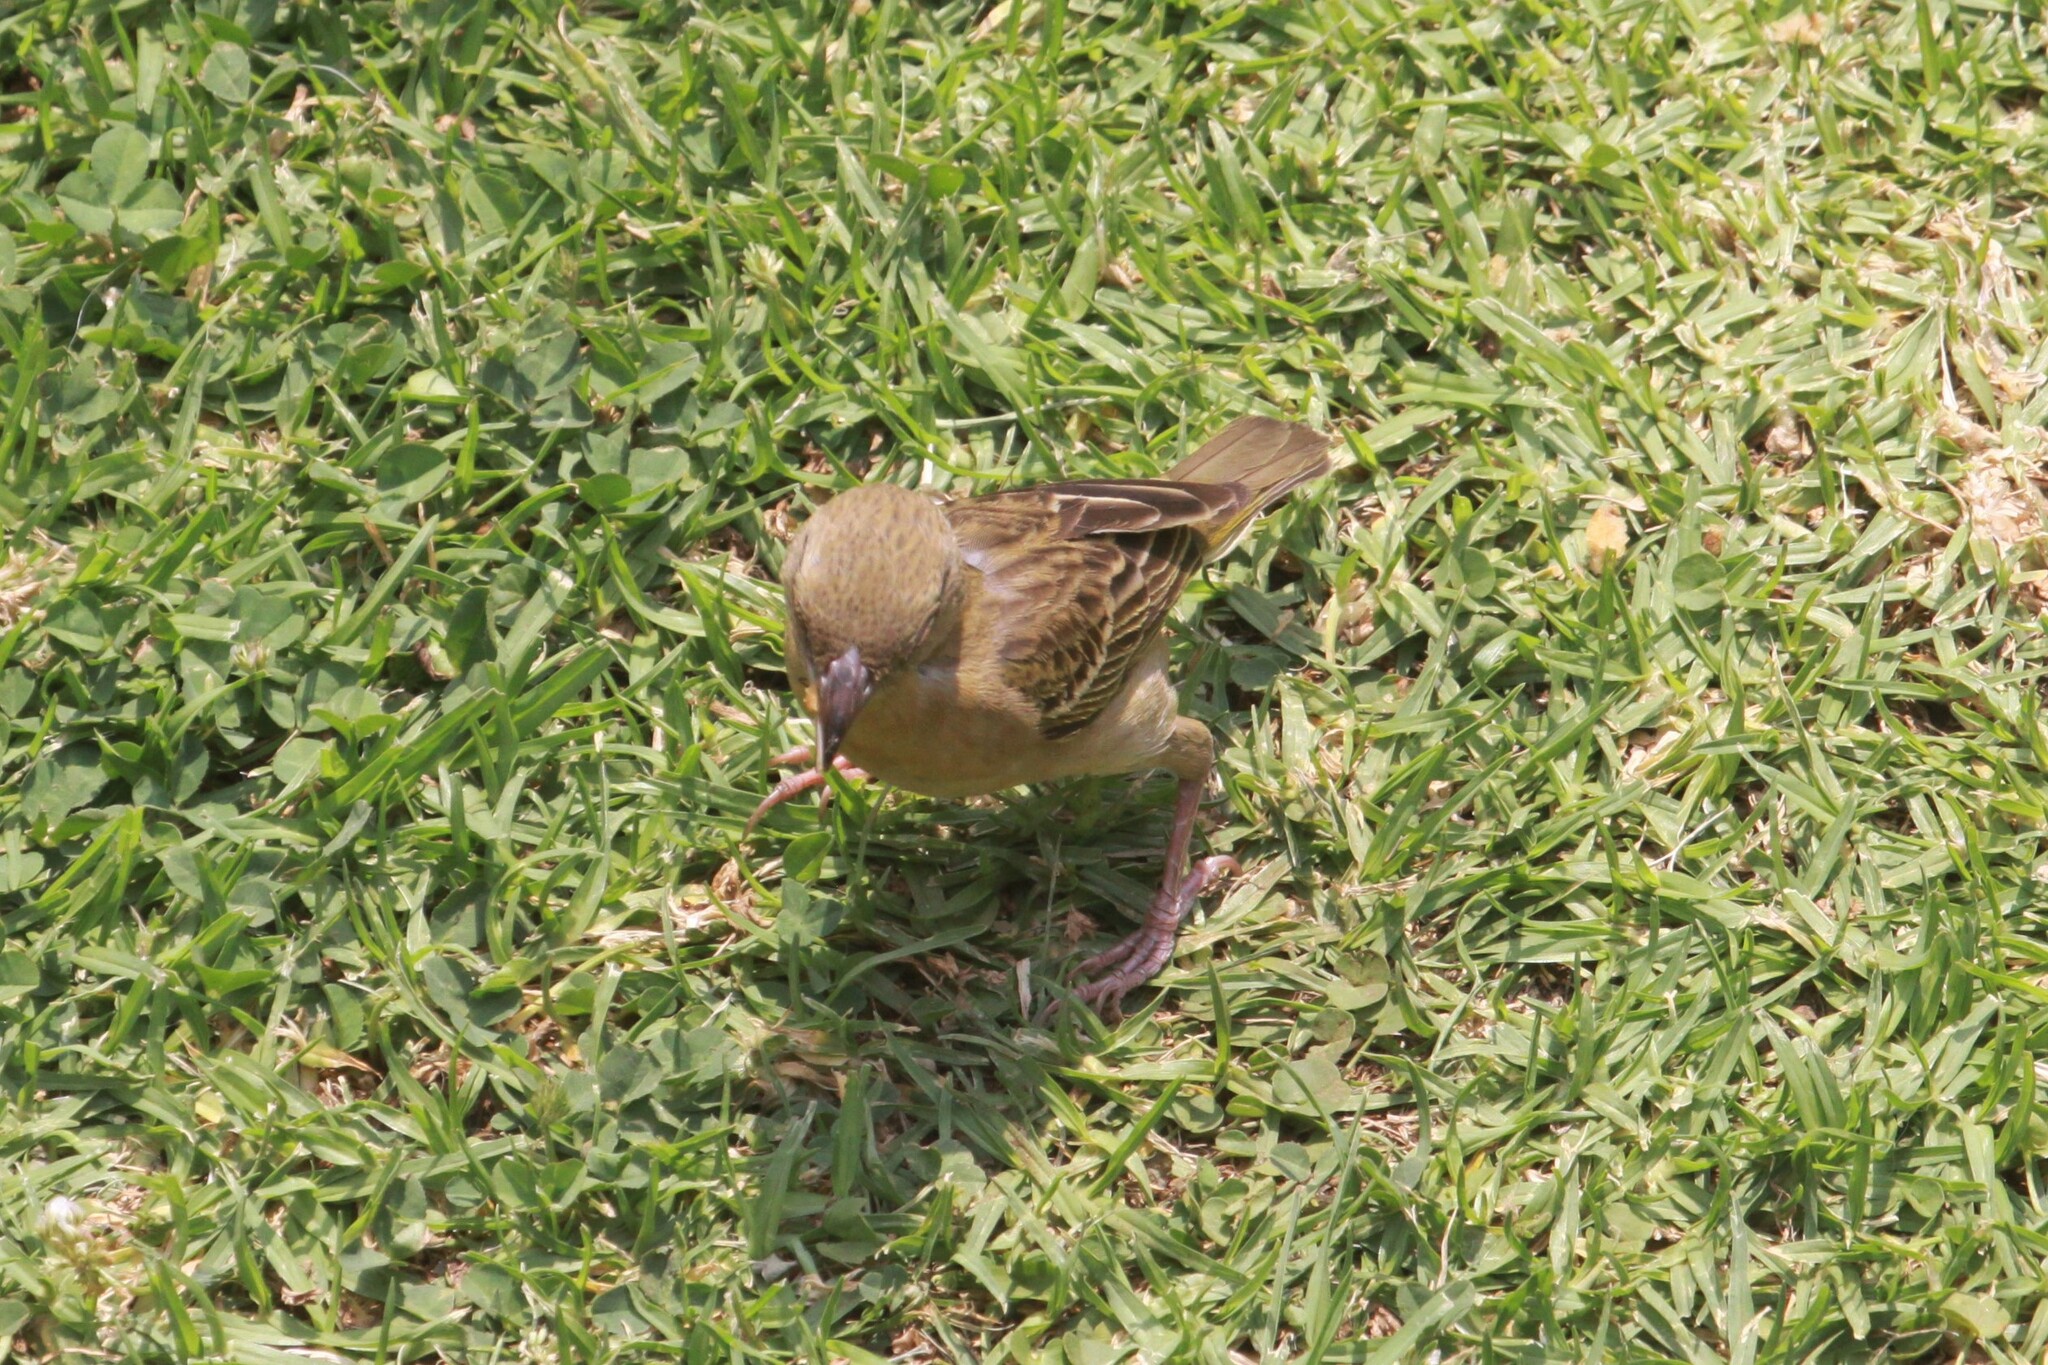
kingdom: Animalia
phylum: Chordata
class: Aves
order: Passeriformes
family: Ploceidae
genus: Ploceus
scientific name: Ploceus velatus
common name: Southern masked weaver
